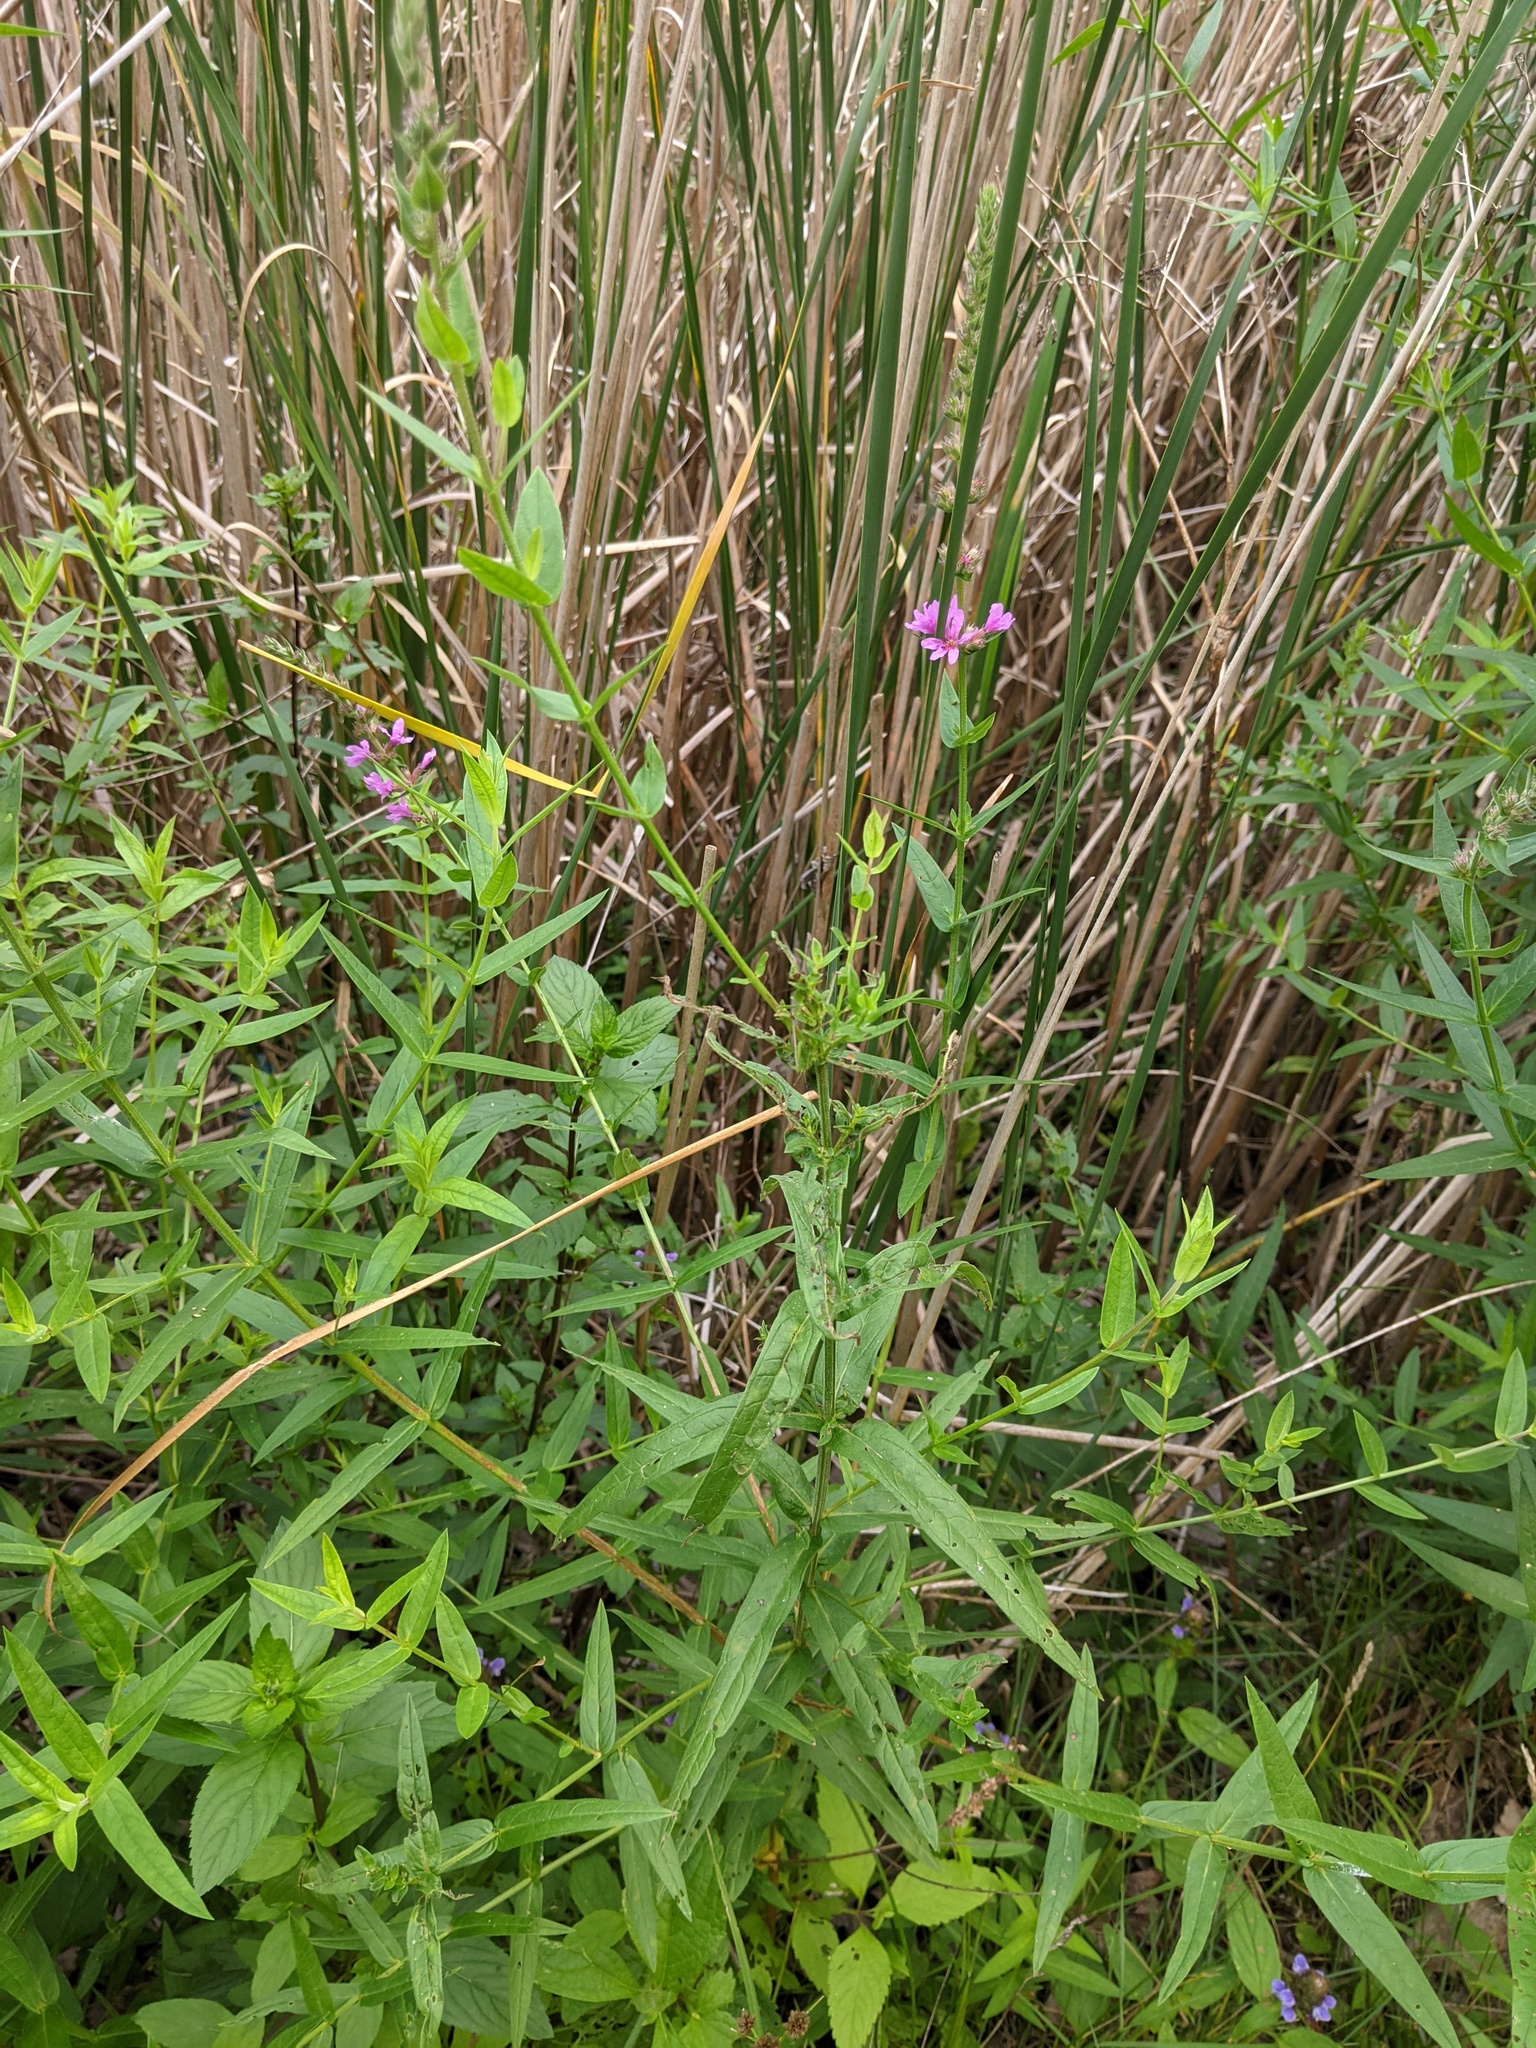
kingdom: Plantae
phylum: Tracheophyta
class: Magnoliopsida
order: Myrtales
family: Lythraceae
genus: Lythrum
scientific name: Lythrum salicaria
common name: Purple loosestrife
